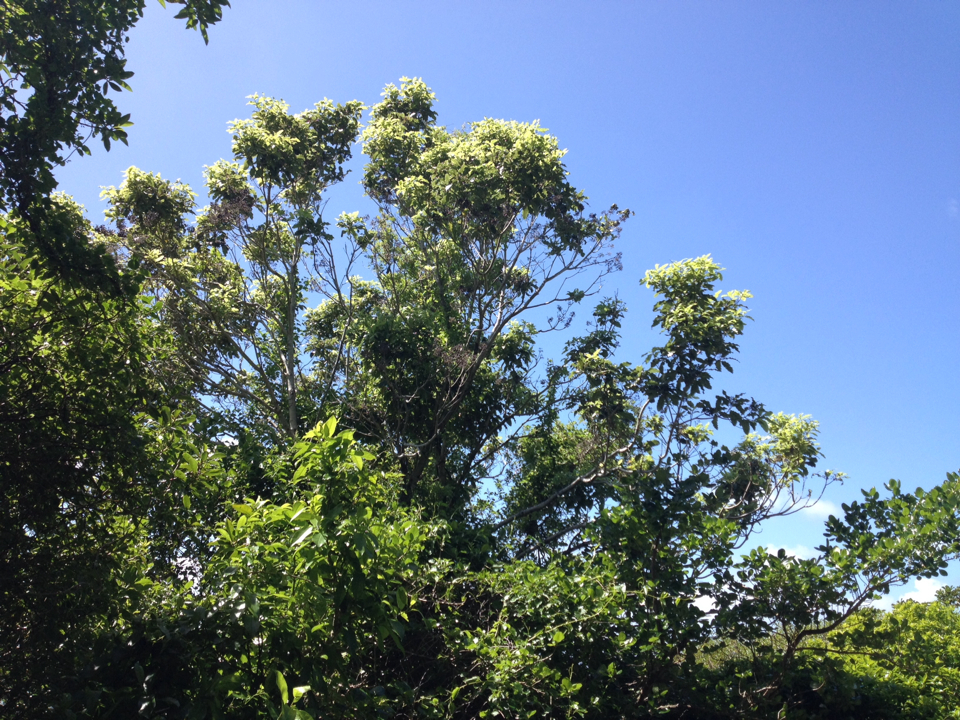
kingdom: Plantae
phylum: Tracheophyta
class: Magnoliopsida
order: Apiales
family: Pittosporaceae
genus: Pittosporum
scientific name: Pittosporum eugenioides
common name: Lemonwood
